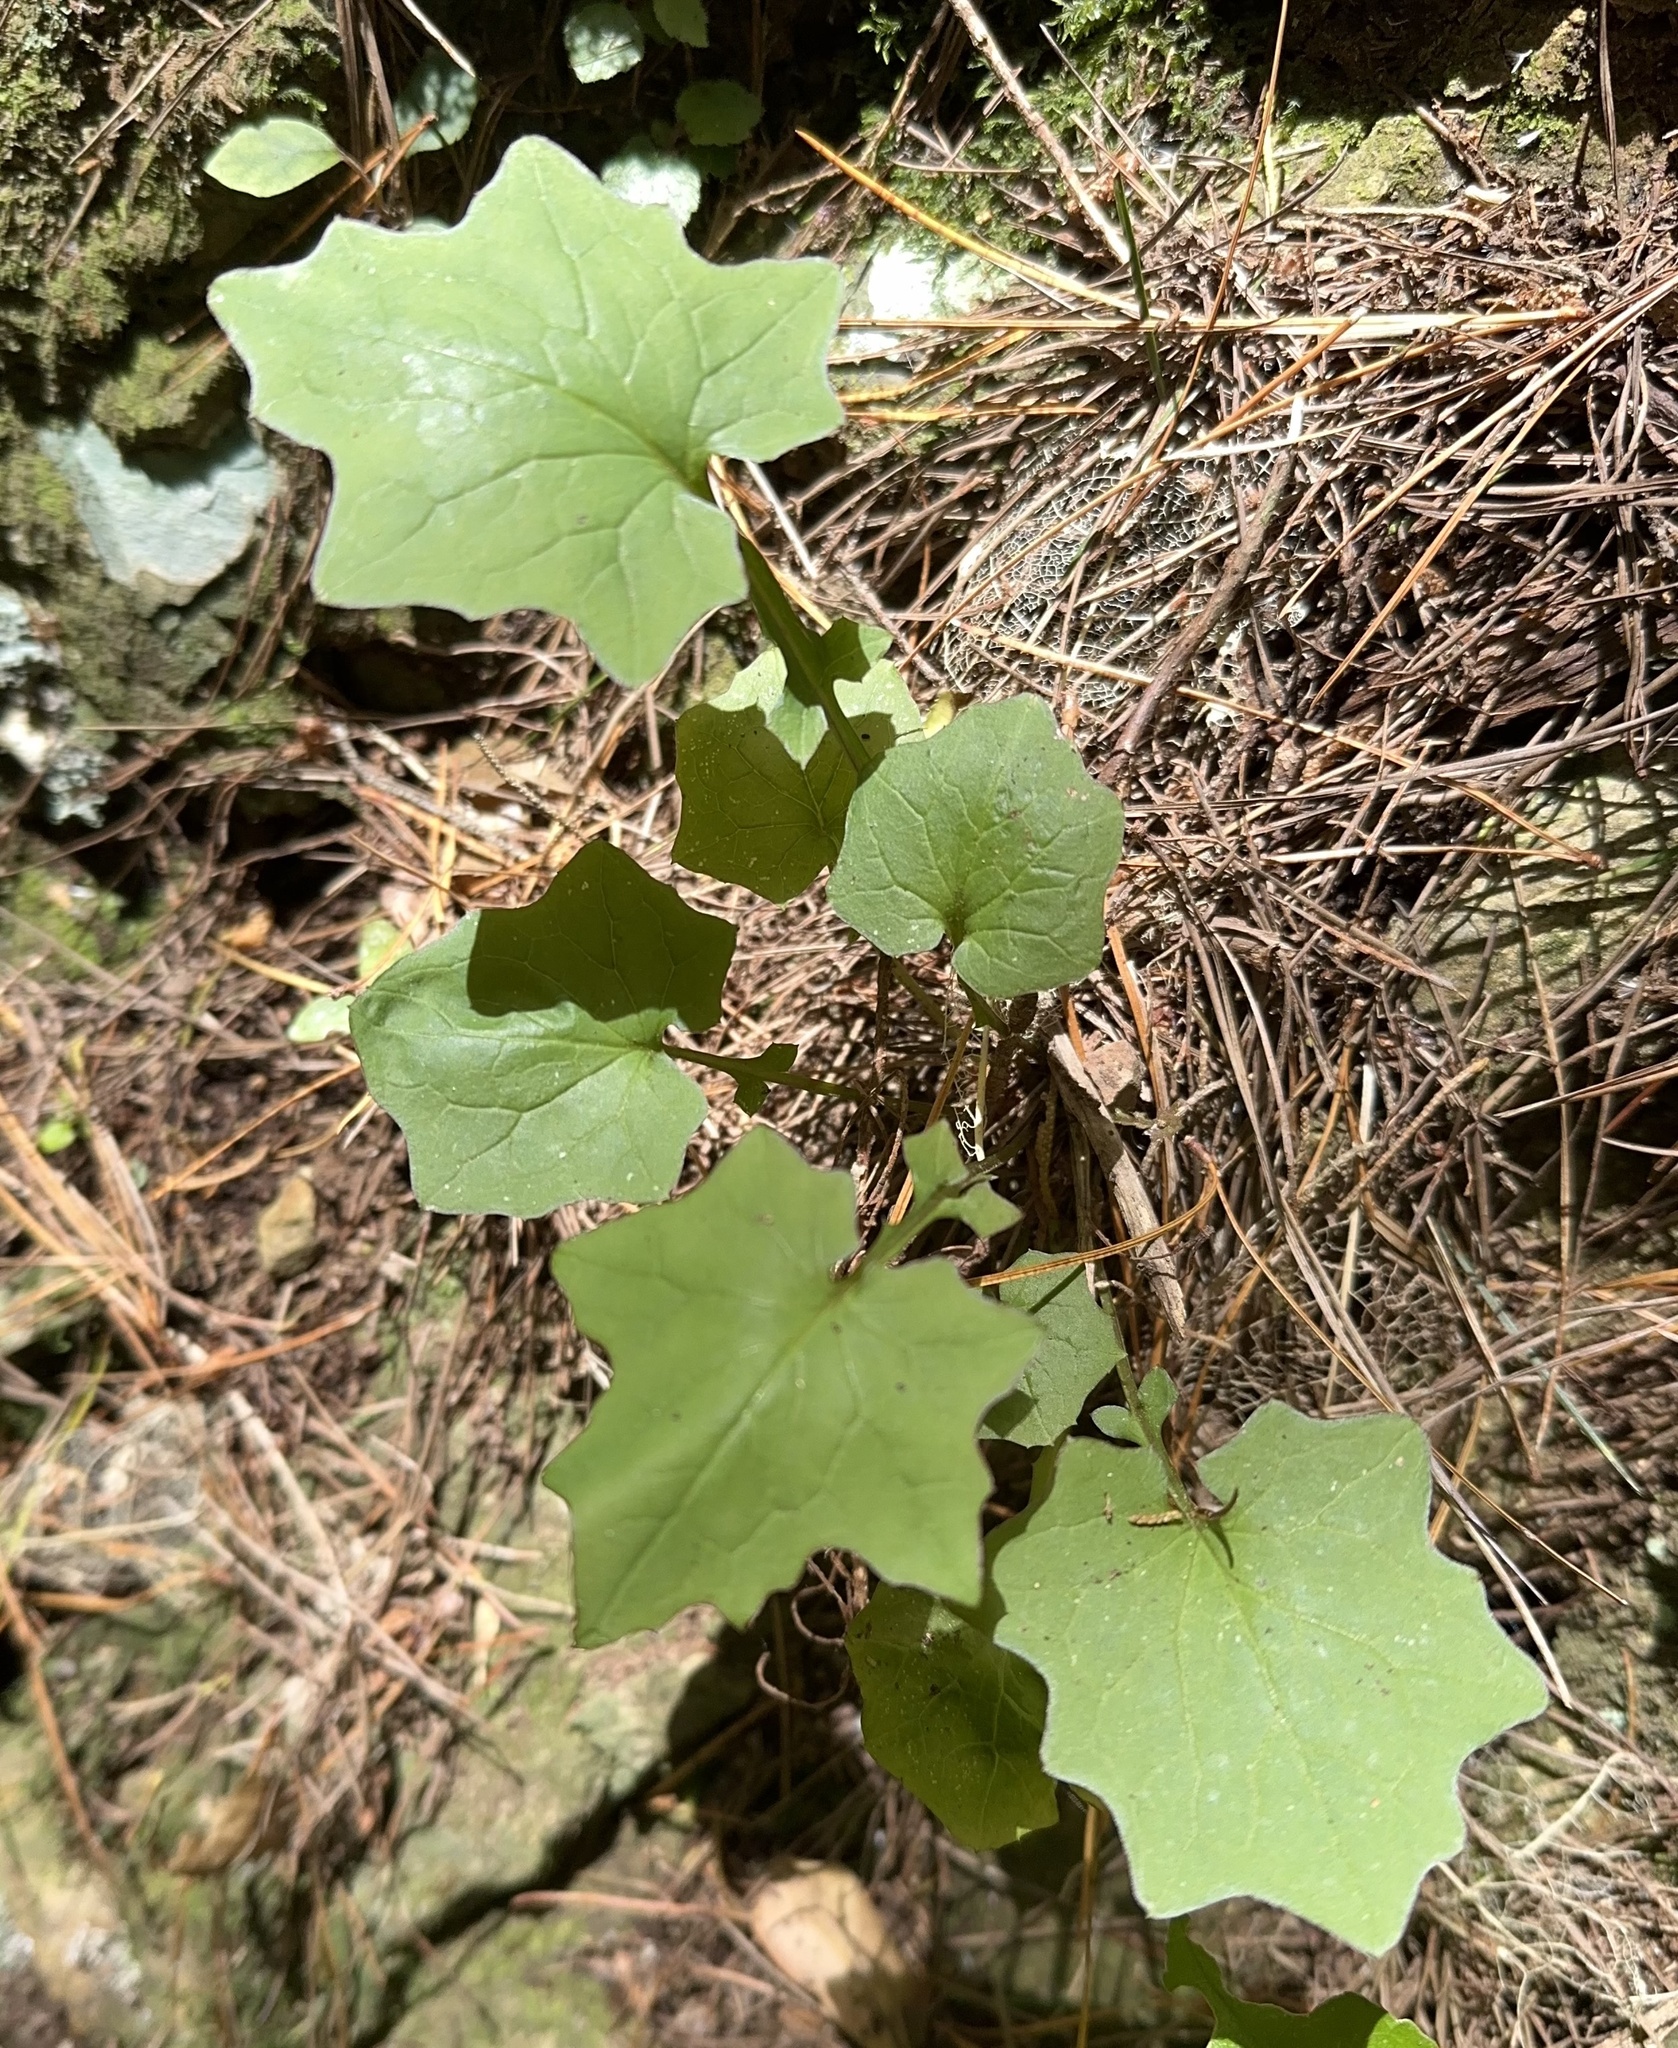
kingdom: Plantae
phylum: Tracheophyta
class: Magnoliopsida
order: Asterales
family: Asteraceae
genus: Mycelis
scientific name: Mycelis muralis
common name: Wall lettuce
